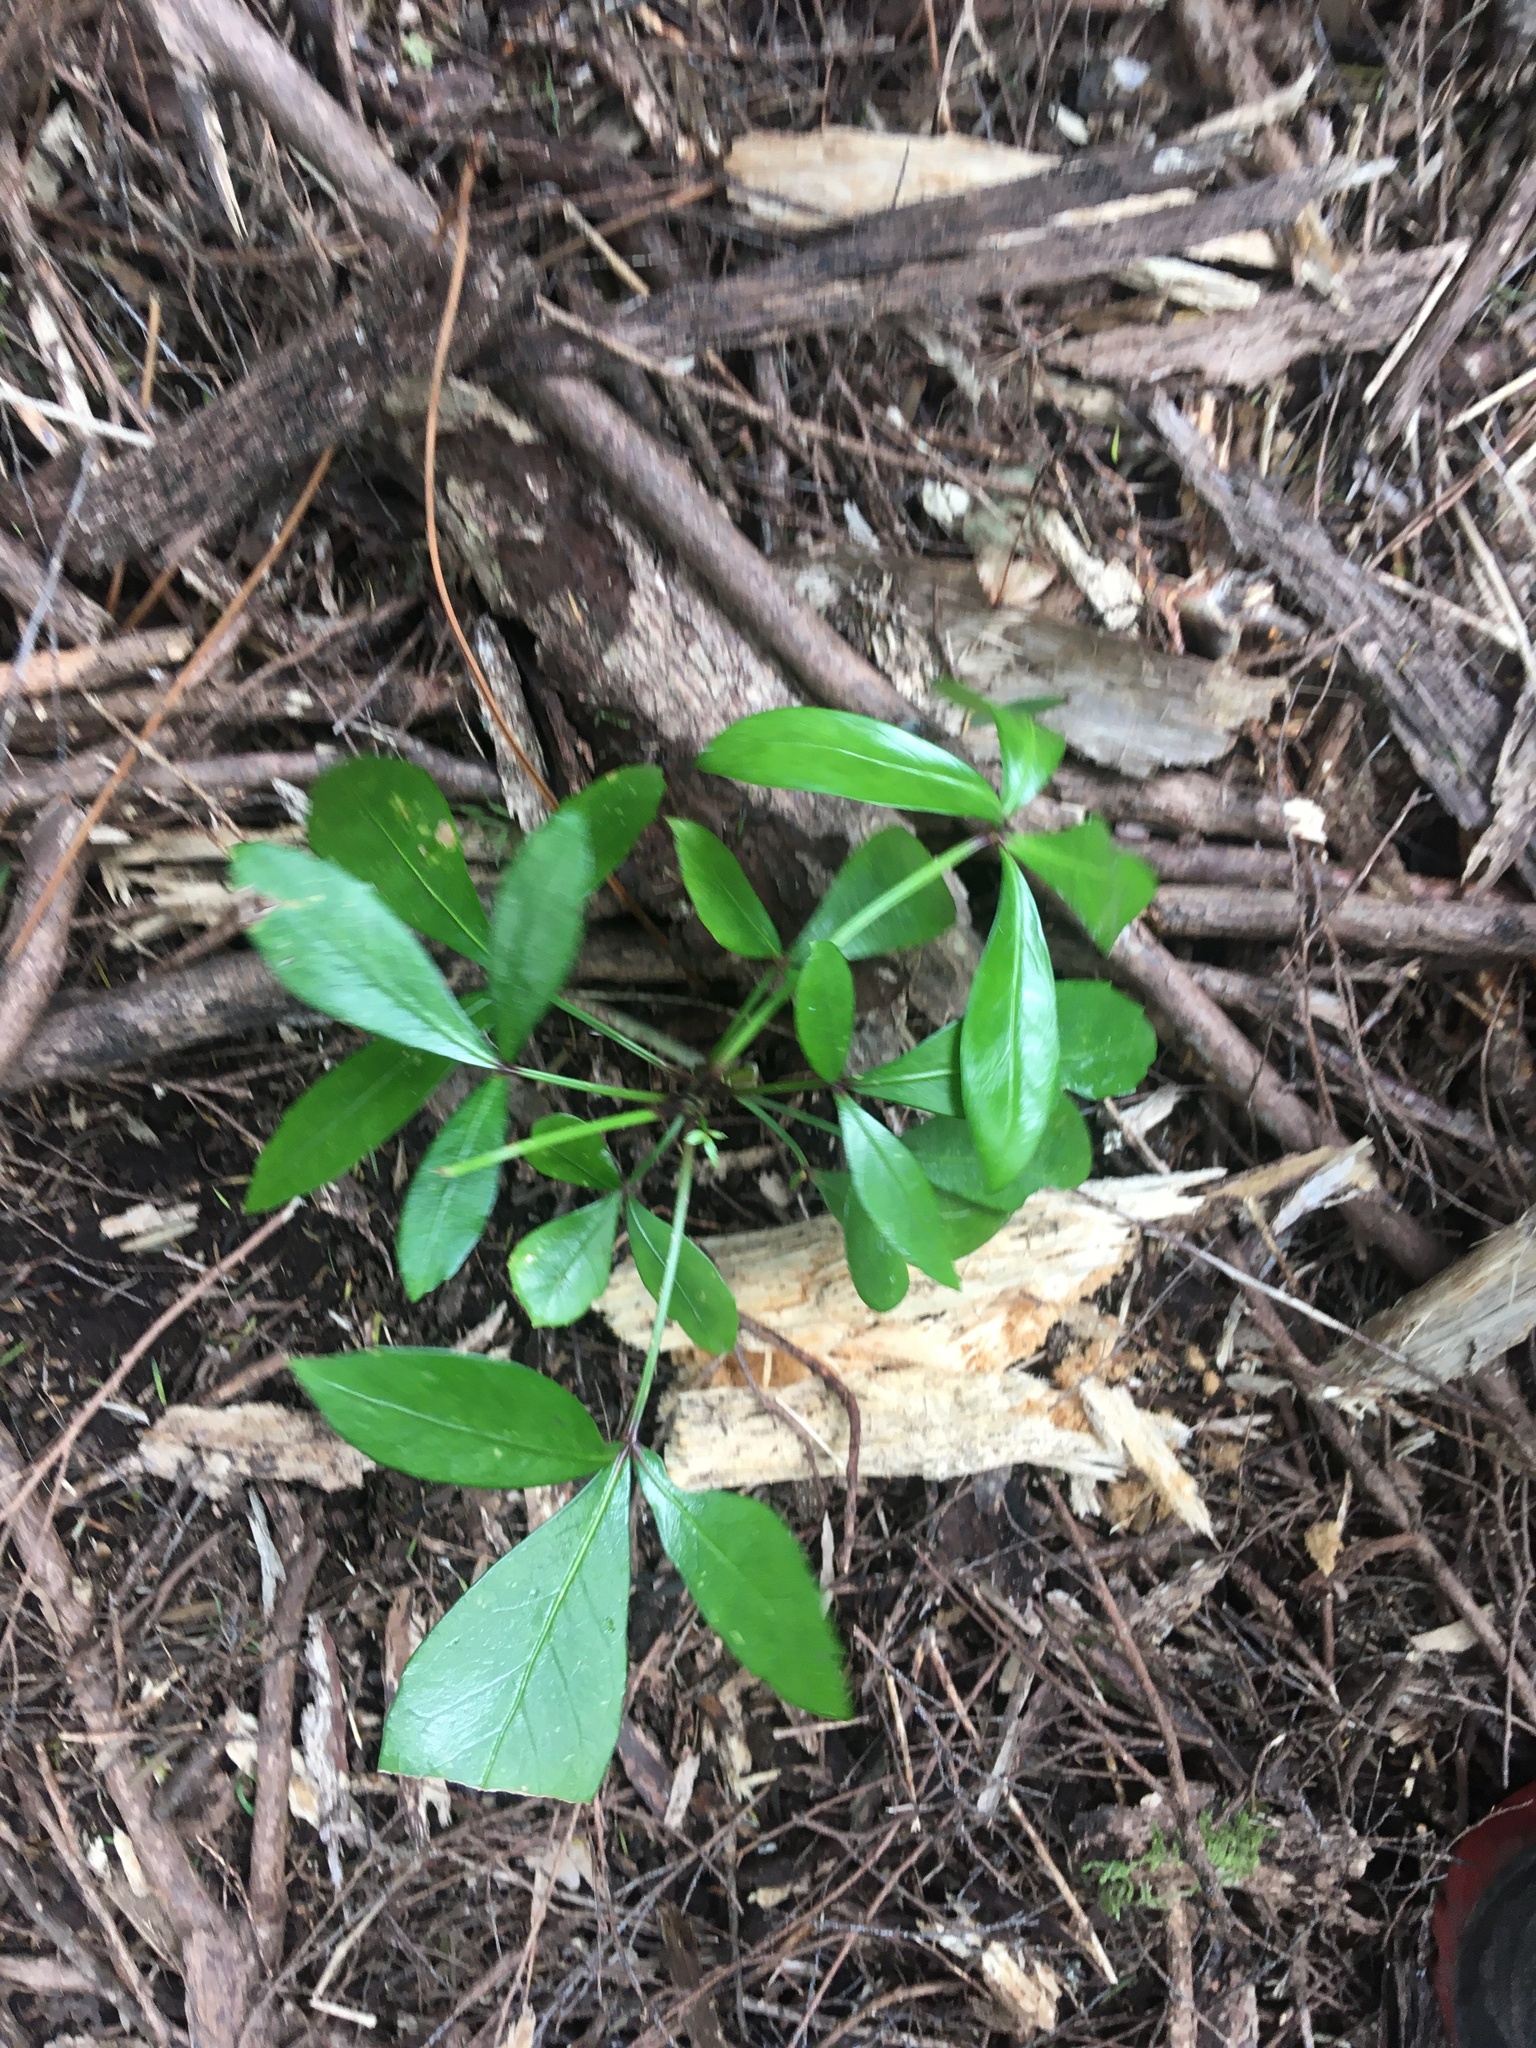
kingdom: Plantae
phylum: Tracheophyta
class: Magnoliopsida
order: Apiales
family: Araliaceae
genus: Pseudopanax
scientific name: Pseudopanax lessonii
